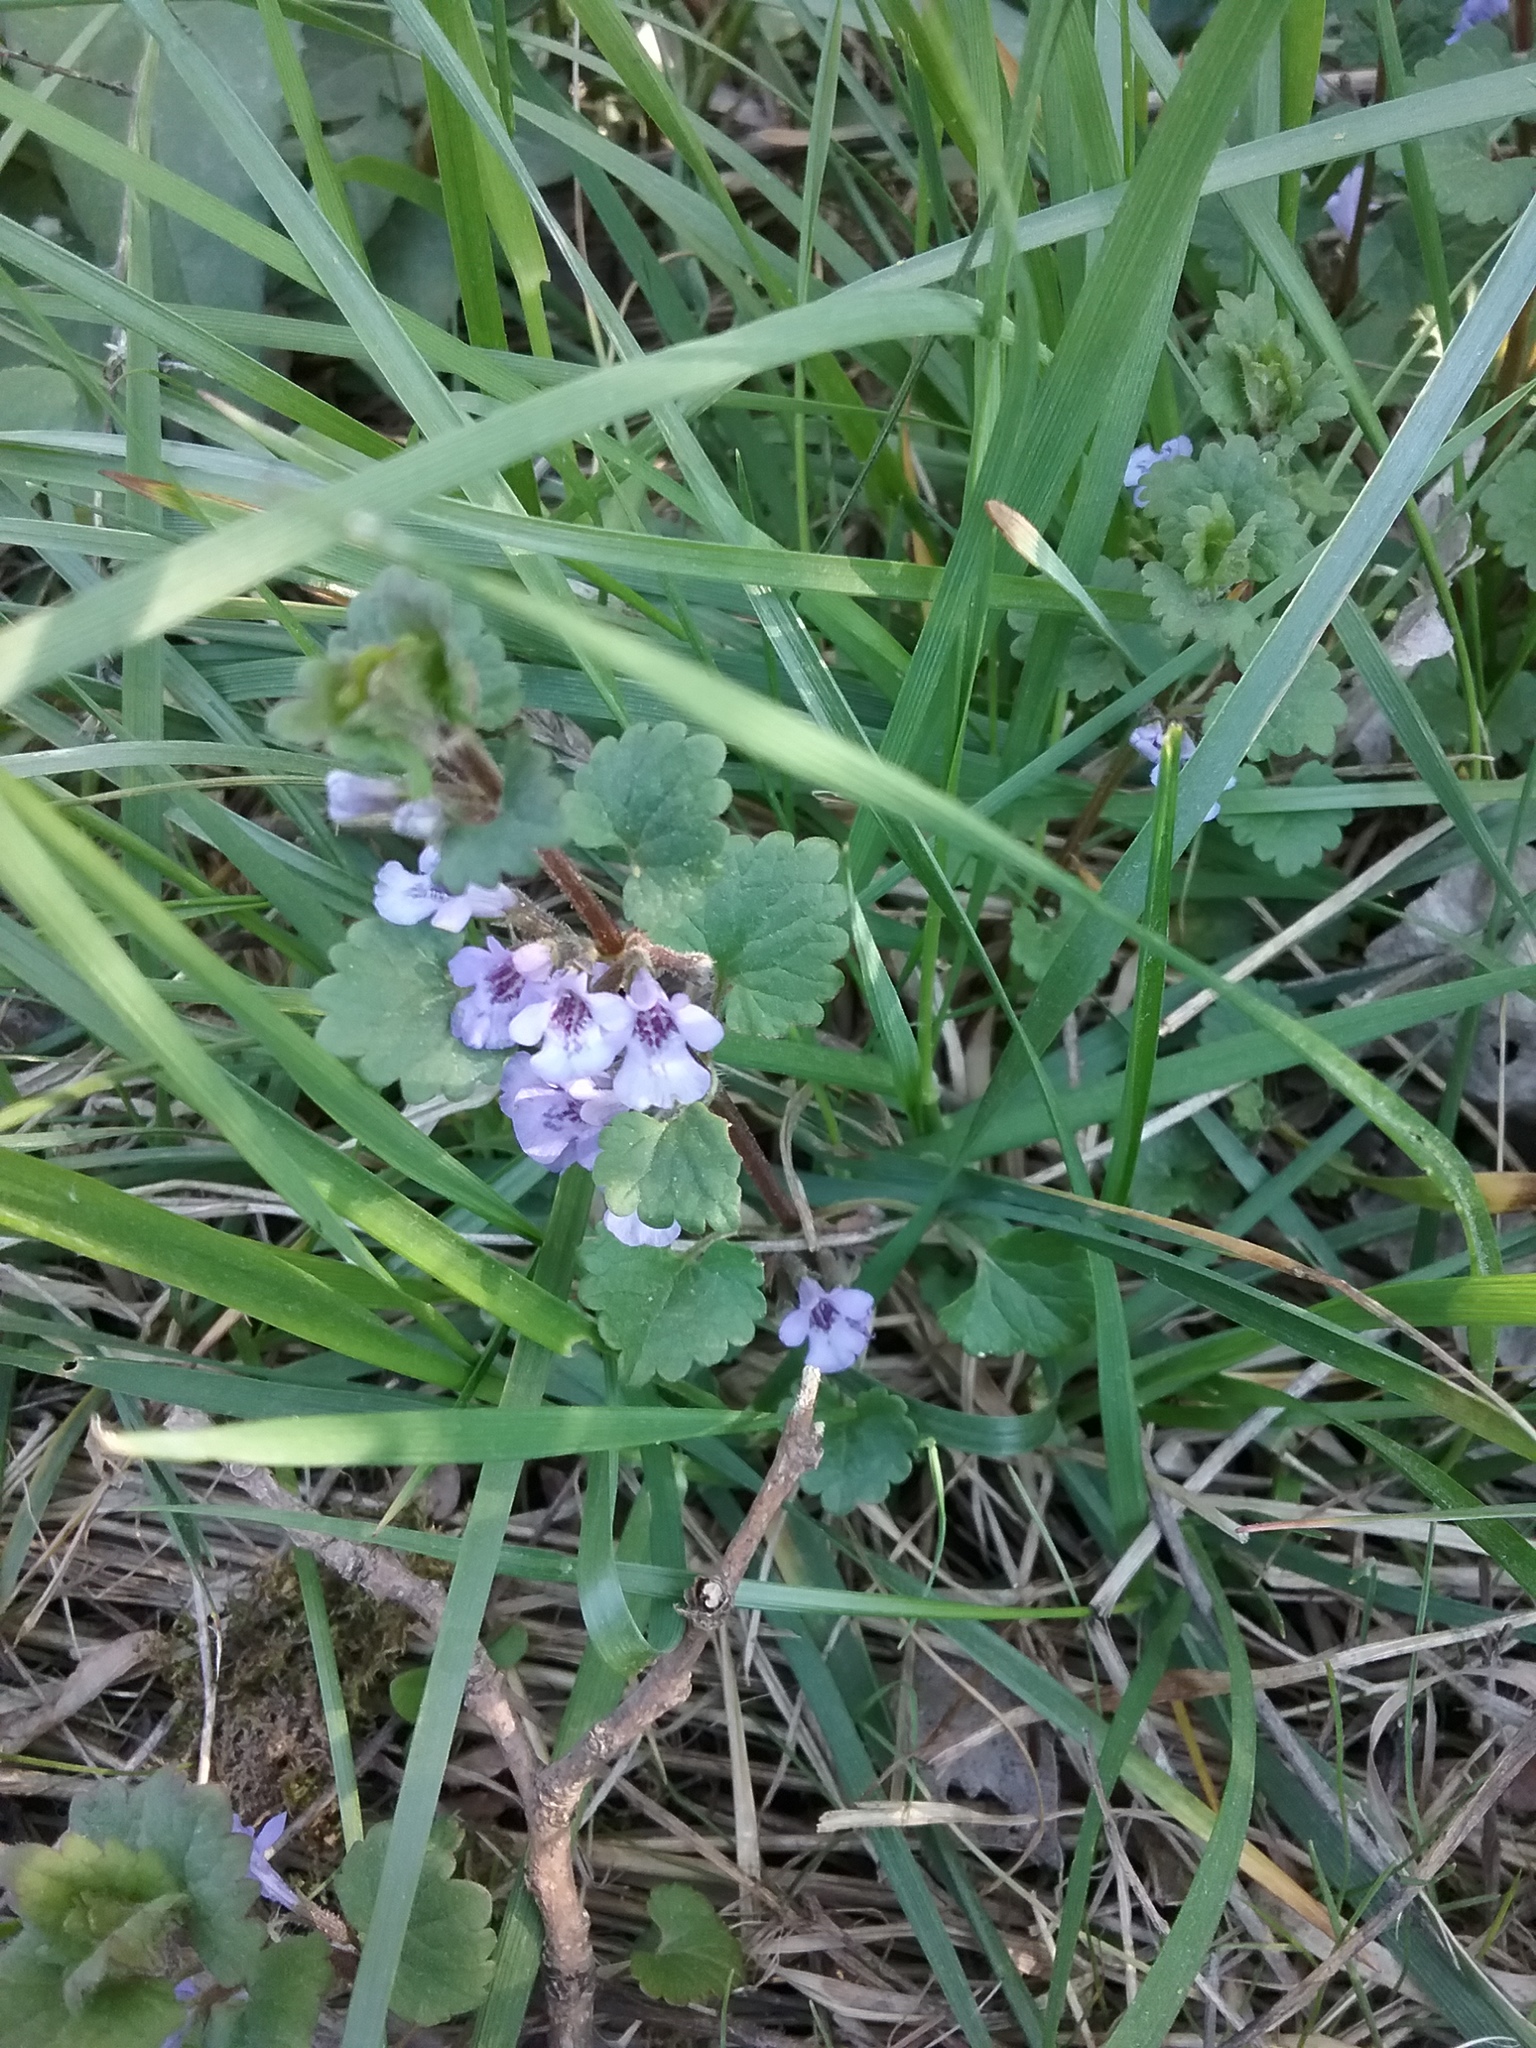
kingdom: Plantae
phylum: Tracheophyta
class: Magnoliopsida
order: Lamiales
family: Lamiaceae
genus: Glechoma
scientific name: Glechoma hederacea
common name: Ground ivy
